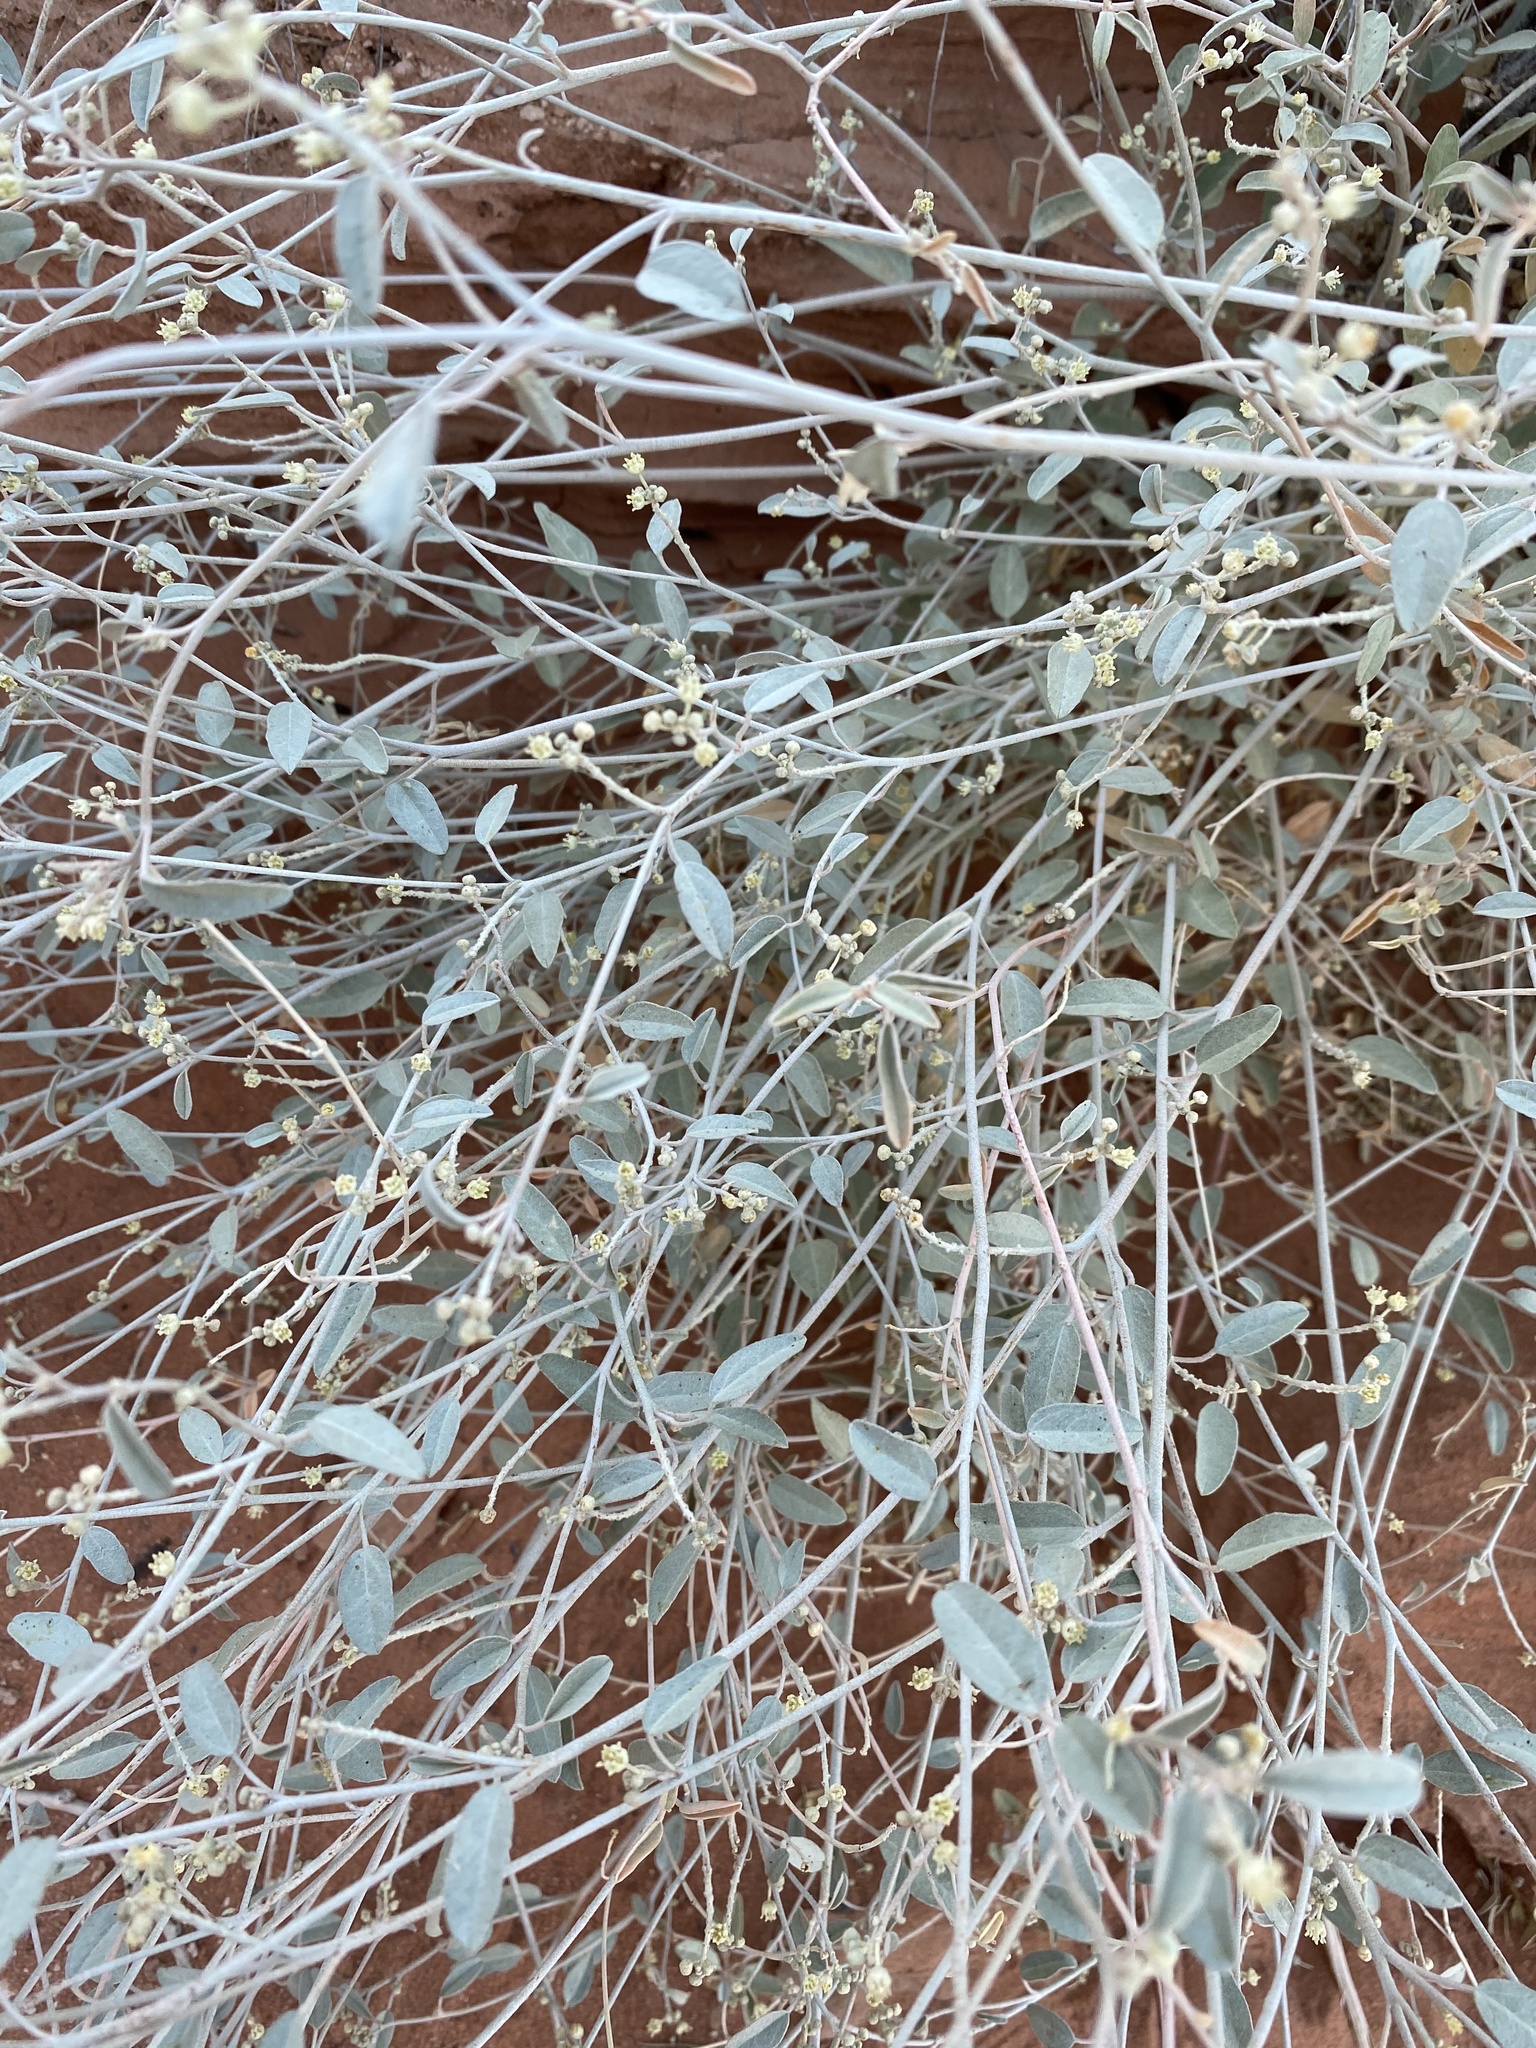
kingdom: Plantae
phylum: Tracheophyta
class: Magnoliopsida
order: Malpighiales
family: Euphorbiaceae
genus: Croton
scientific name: Croton californicus
